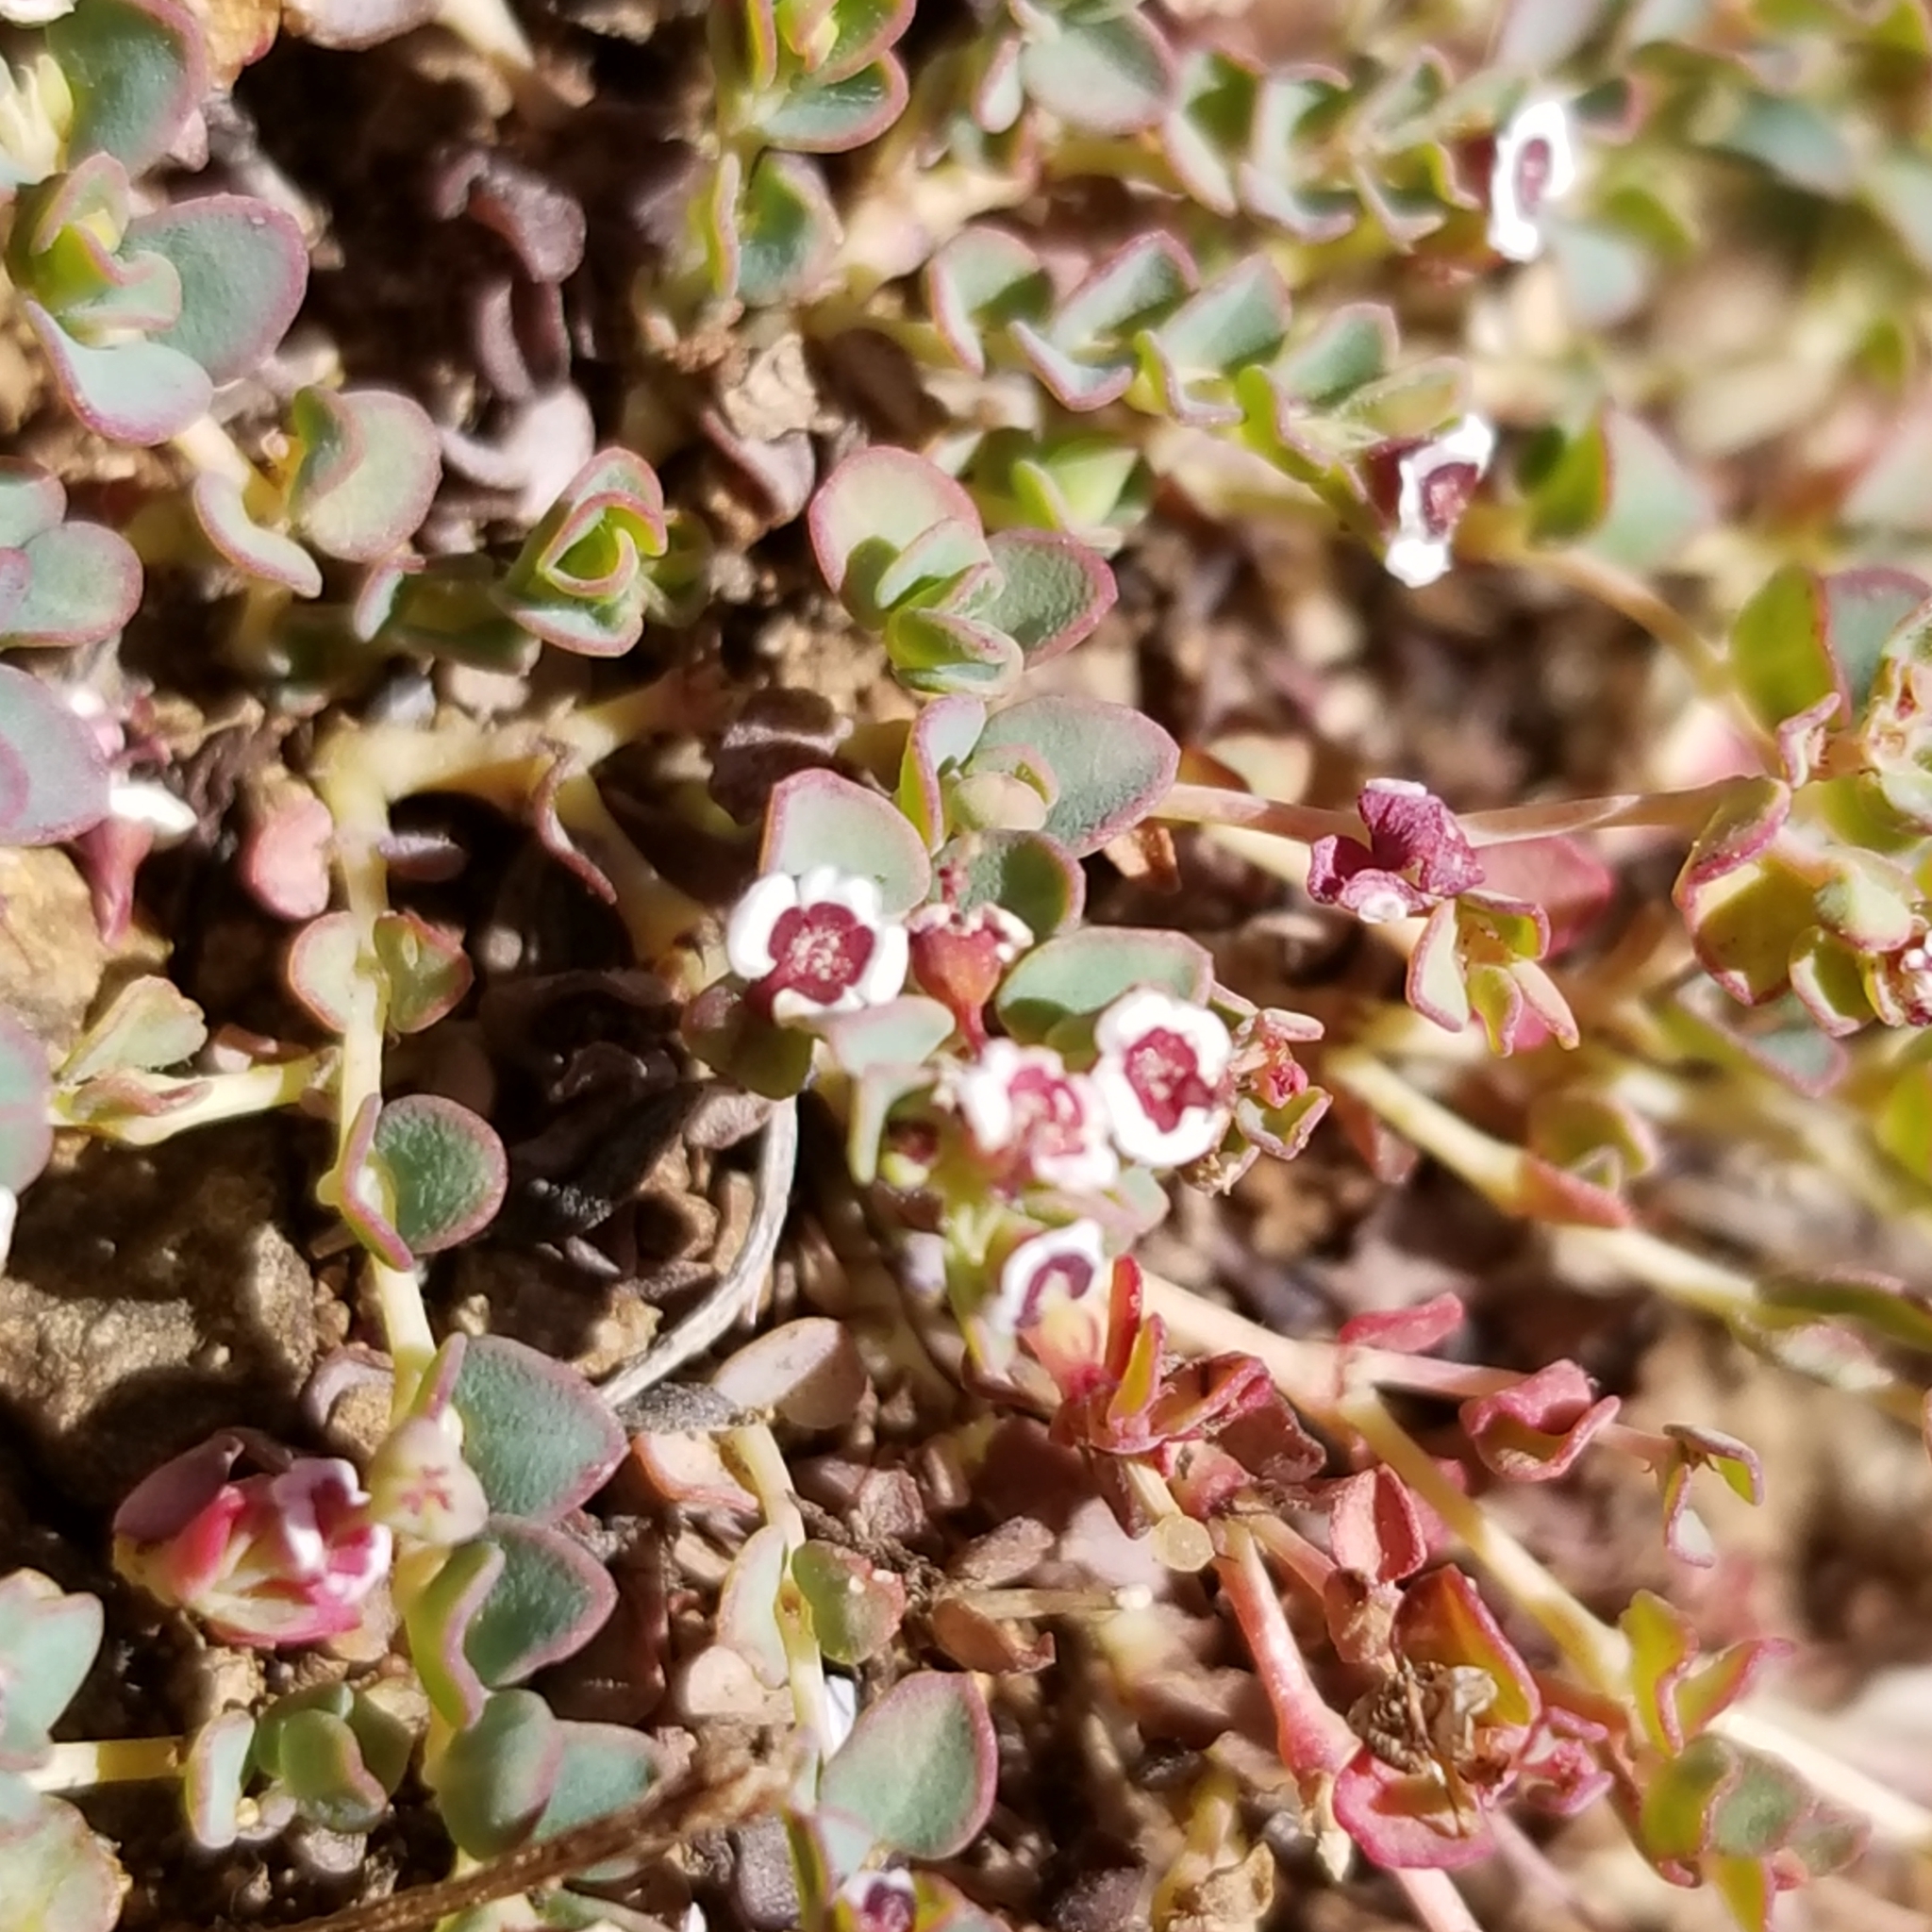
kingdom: Plantae
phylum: Tracheophyta
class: Magnoliopsida
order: Malpighiales
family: Euphorbiaceae
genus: Euphorbia
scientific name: Euphorbia polycarpa
